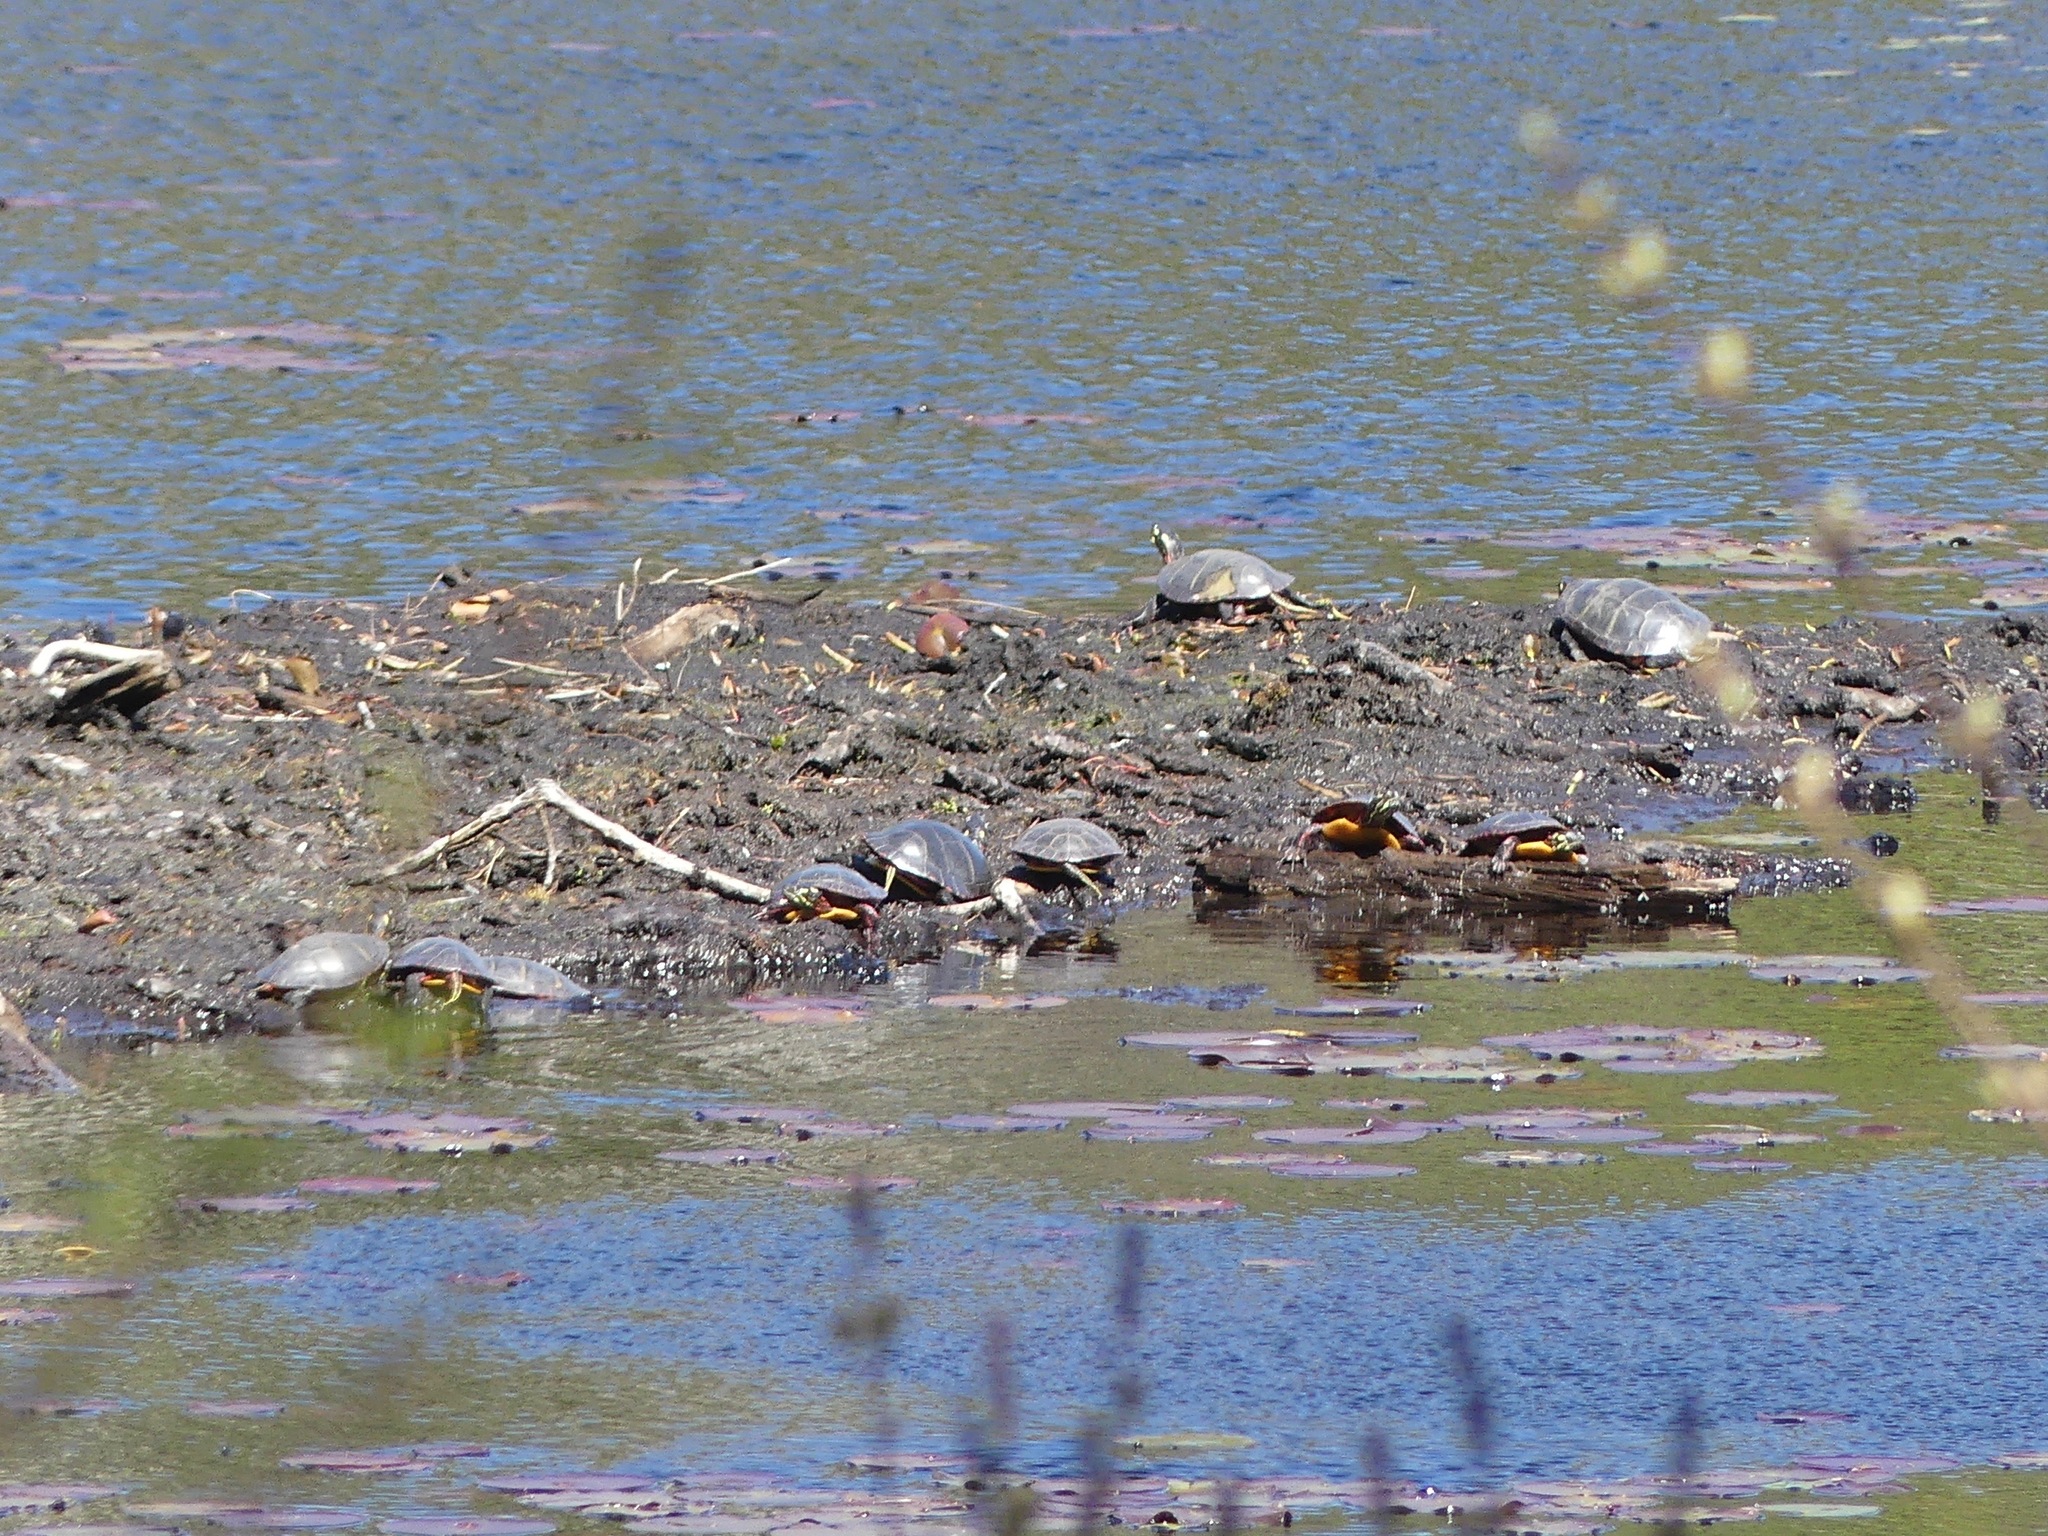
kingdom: Animalia
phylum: Chordata
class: Testudines
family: Emydidae
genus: Chrysemys
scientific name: Chrysemys picta
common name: Painted turtle
